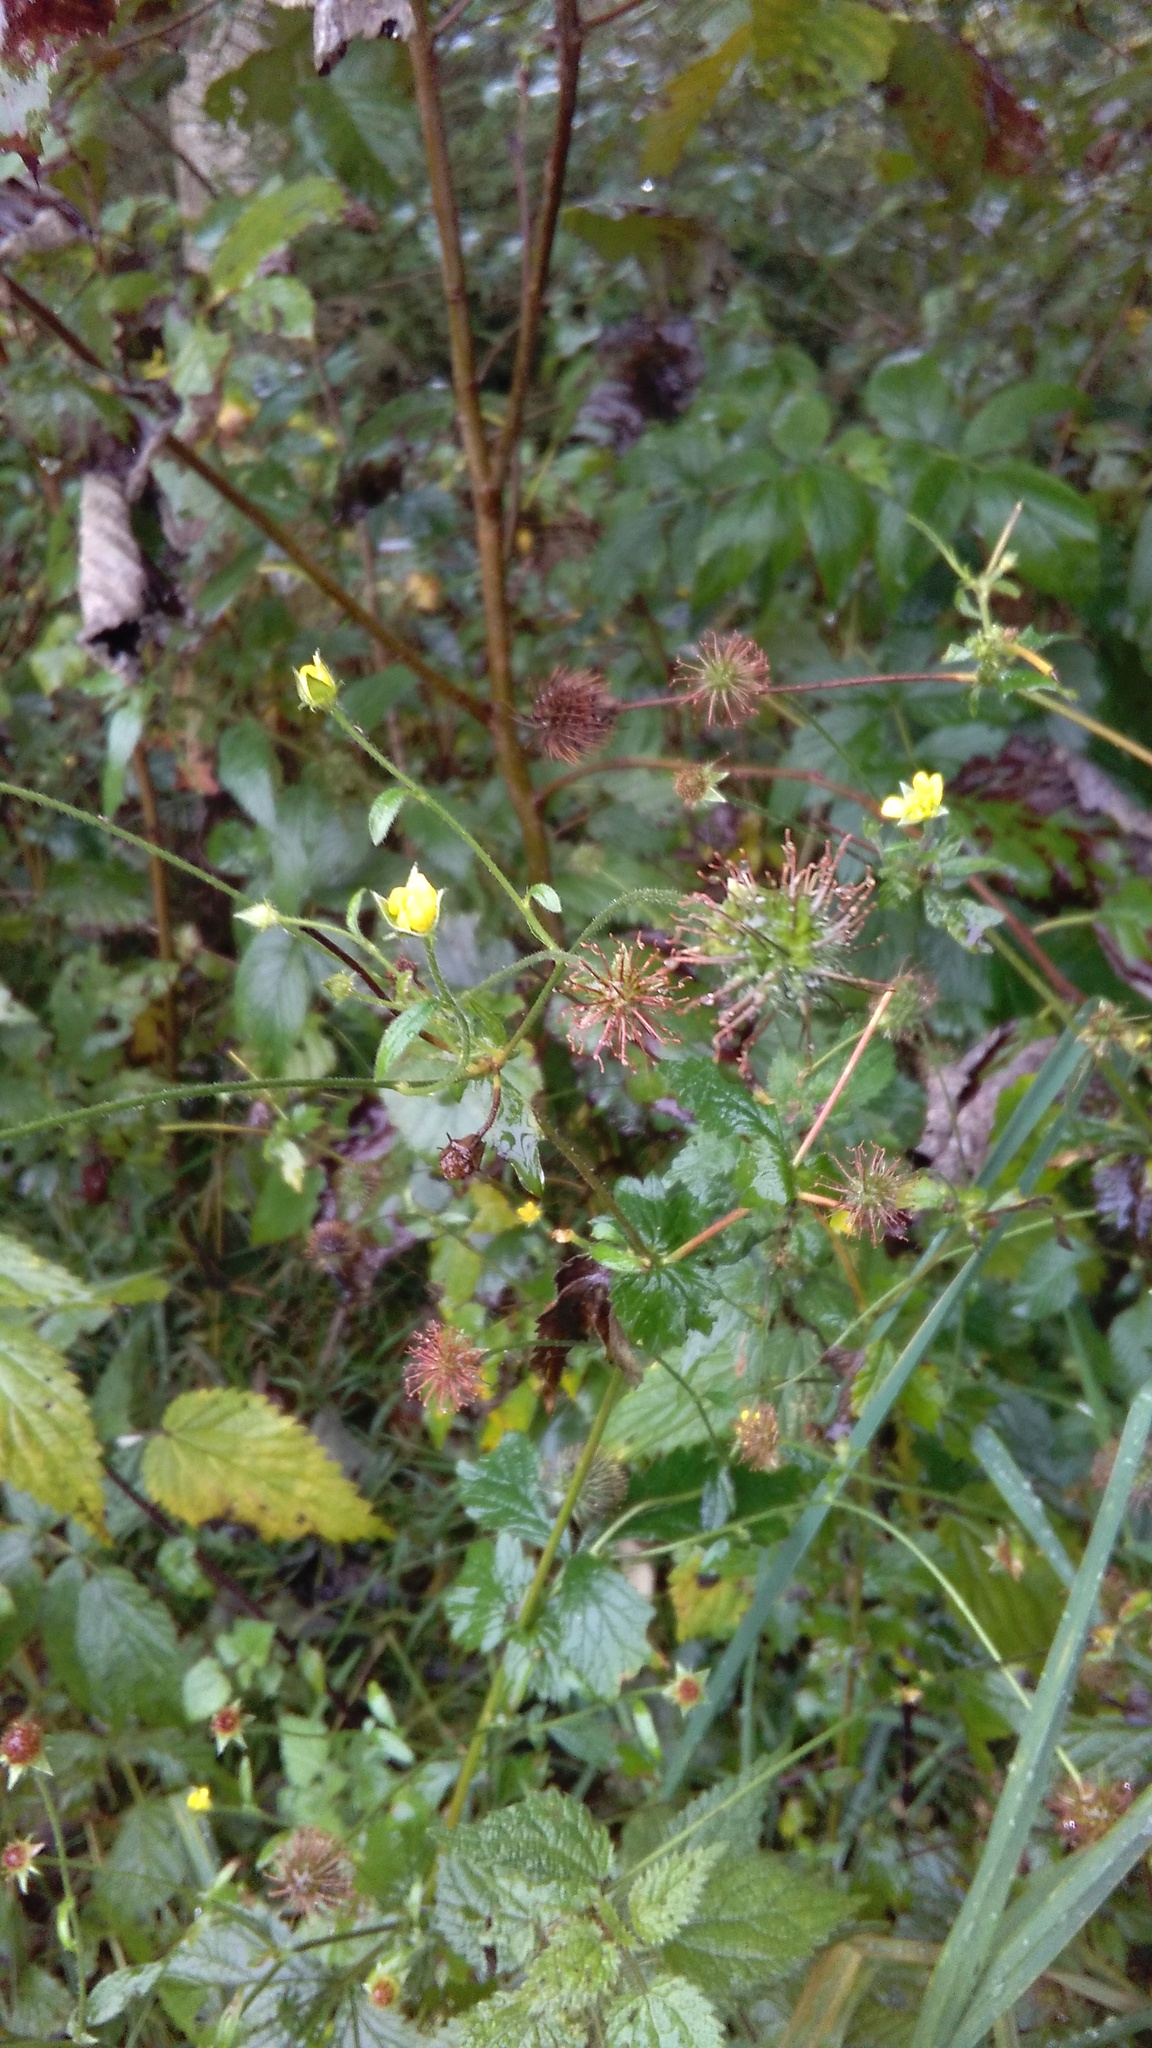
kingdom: Plantae
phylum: Tracheophyta
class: Magnoliopsida
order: Rosales
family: Rosaceae
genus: Geum
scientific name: Geum urbanum
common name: Wood avens
